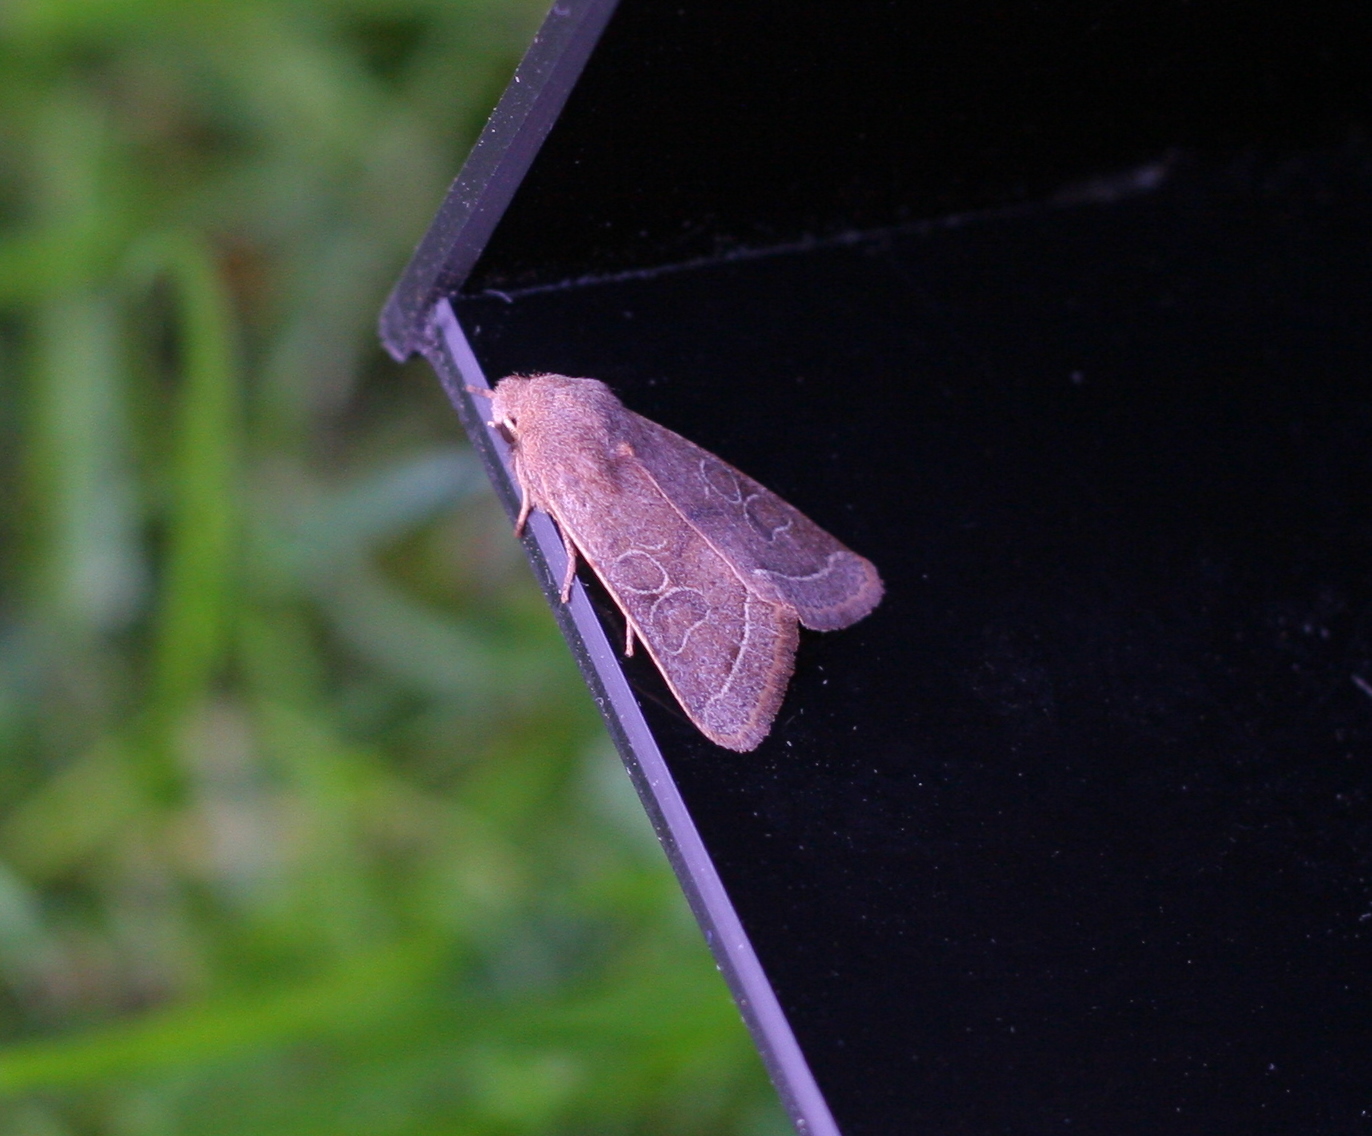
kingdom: Animalia
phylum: Arthropoda
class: Insecta
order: Lepidoptera
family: Noctuidae
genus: Orthosia
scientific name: Orthosia cerasi
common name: Common quaker
